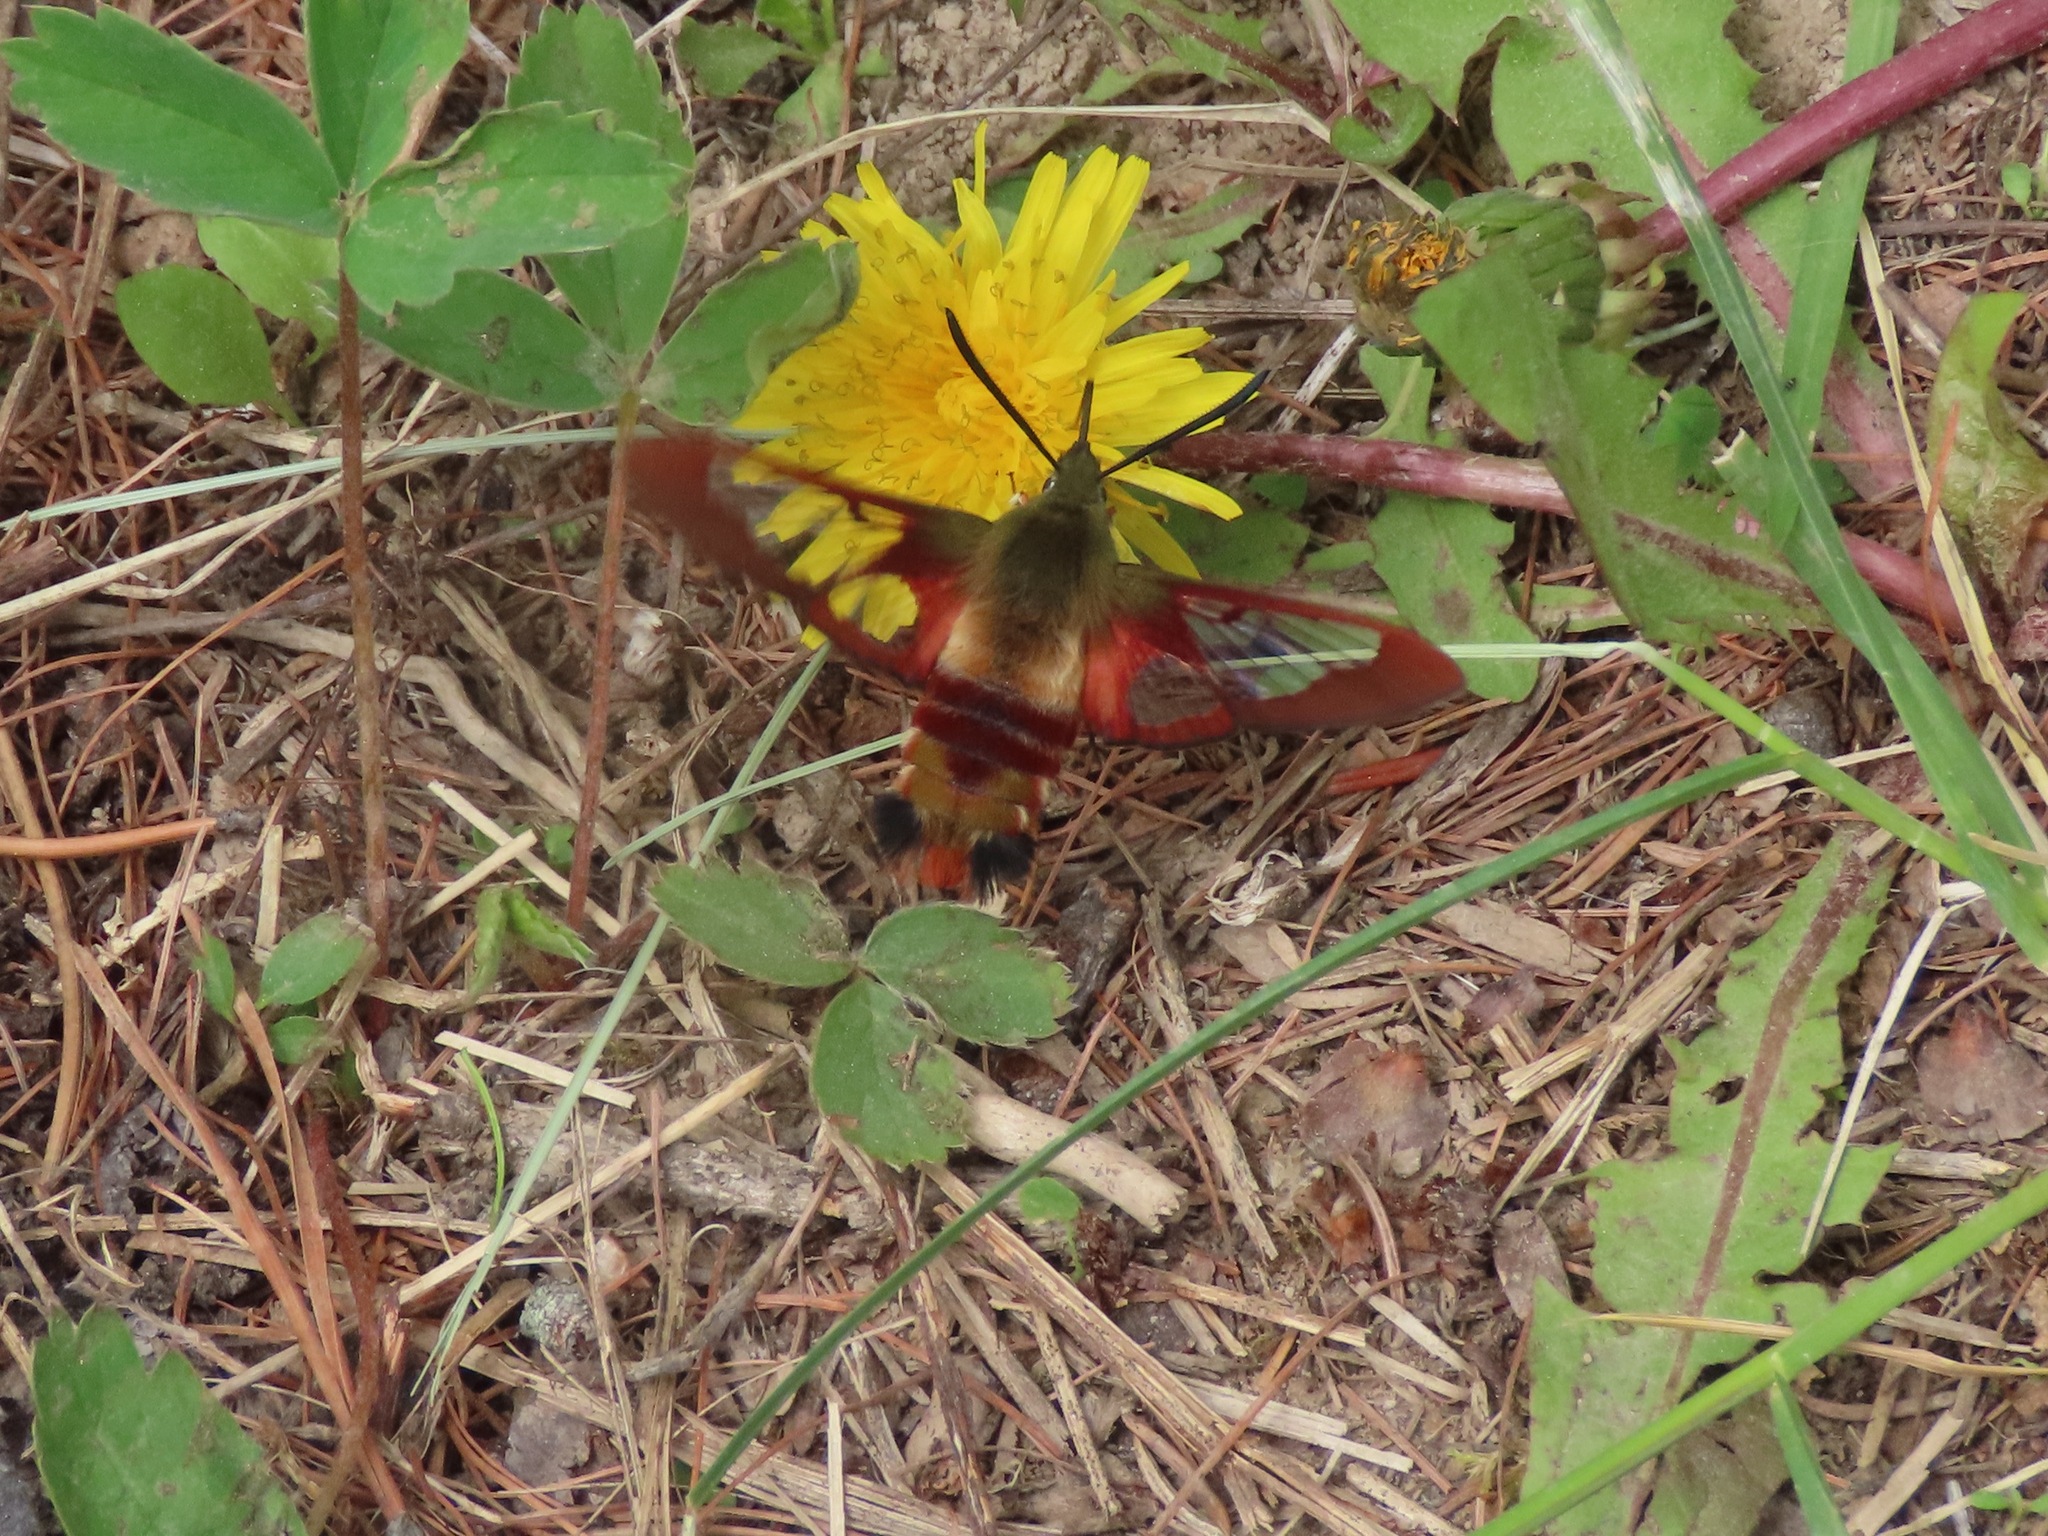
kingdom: Animalia
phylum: Arthropoda
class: Insecta
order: Lepidoptera
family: Sphingidae
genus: Hemaris
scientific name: Hemaris thysbe
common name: Common clear-wing
